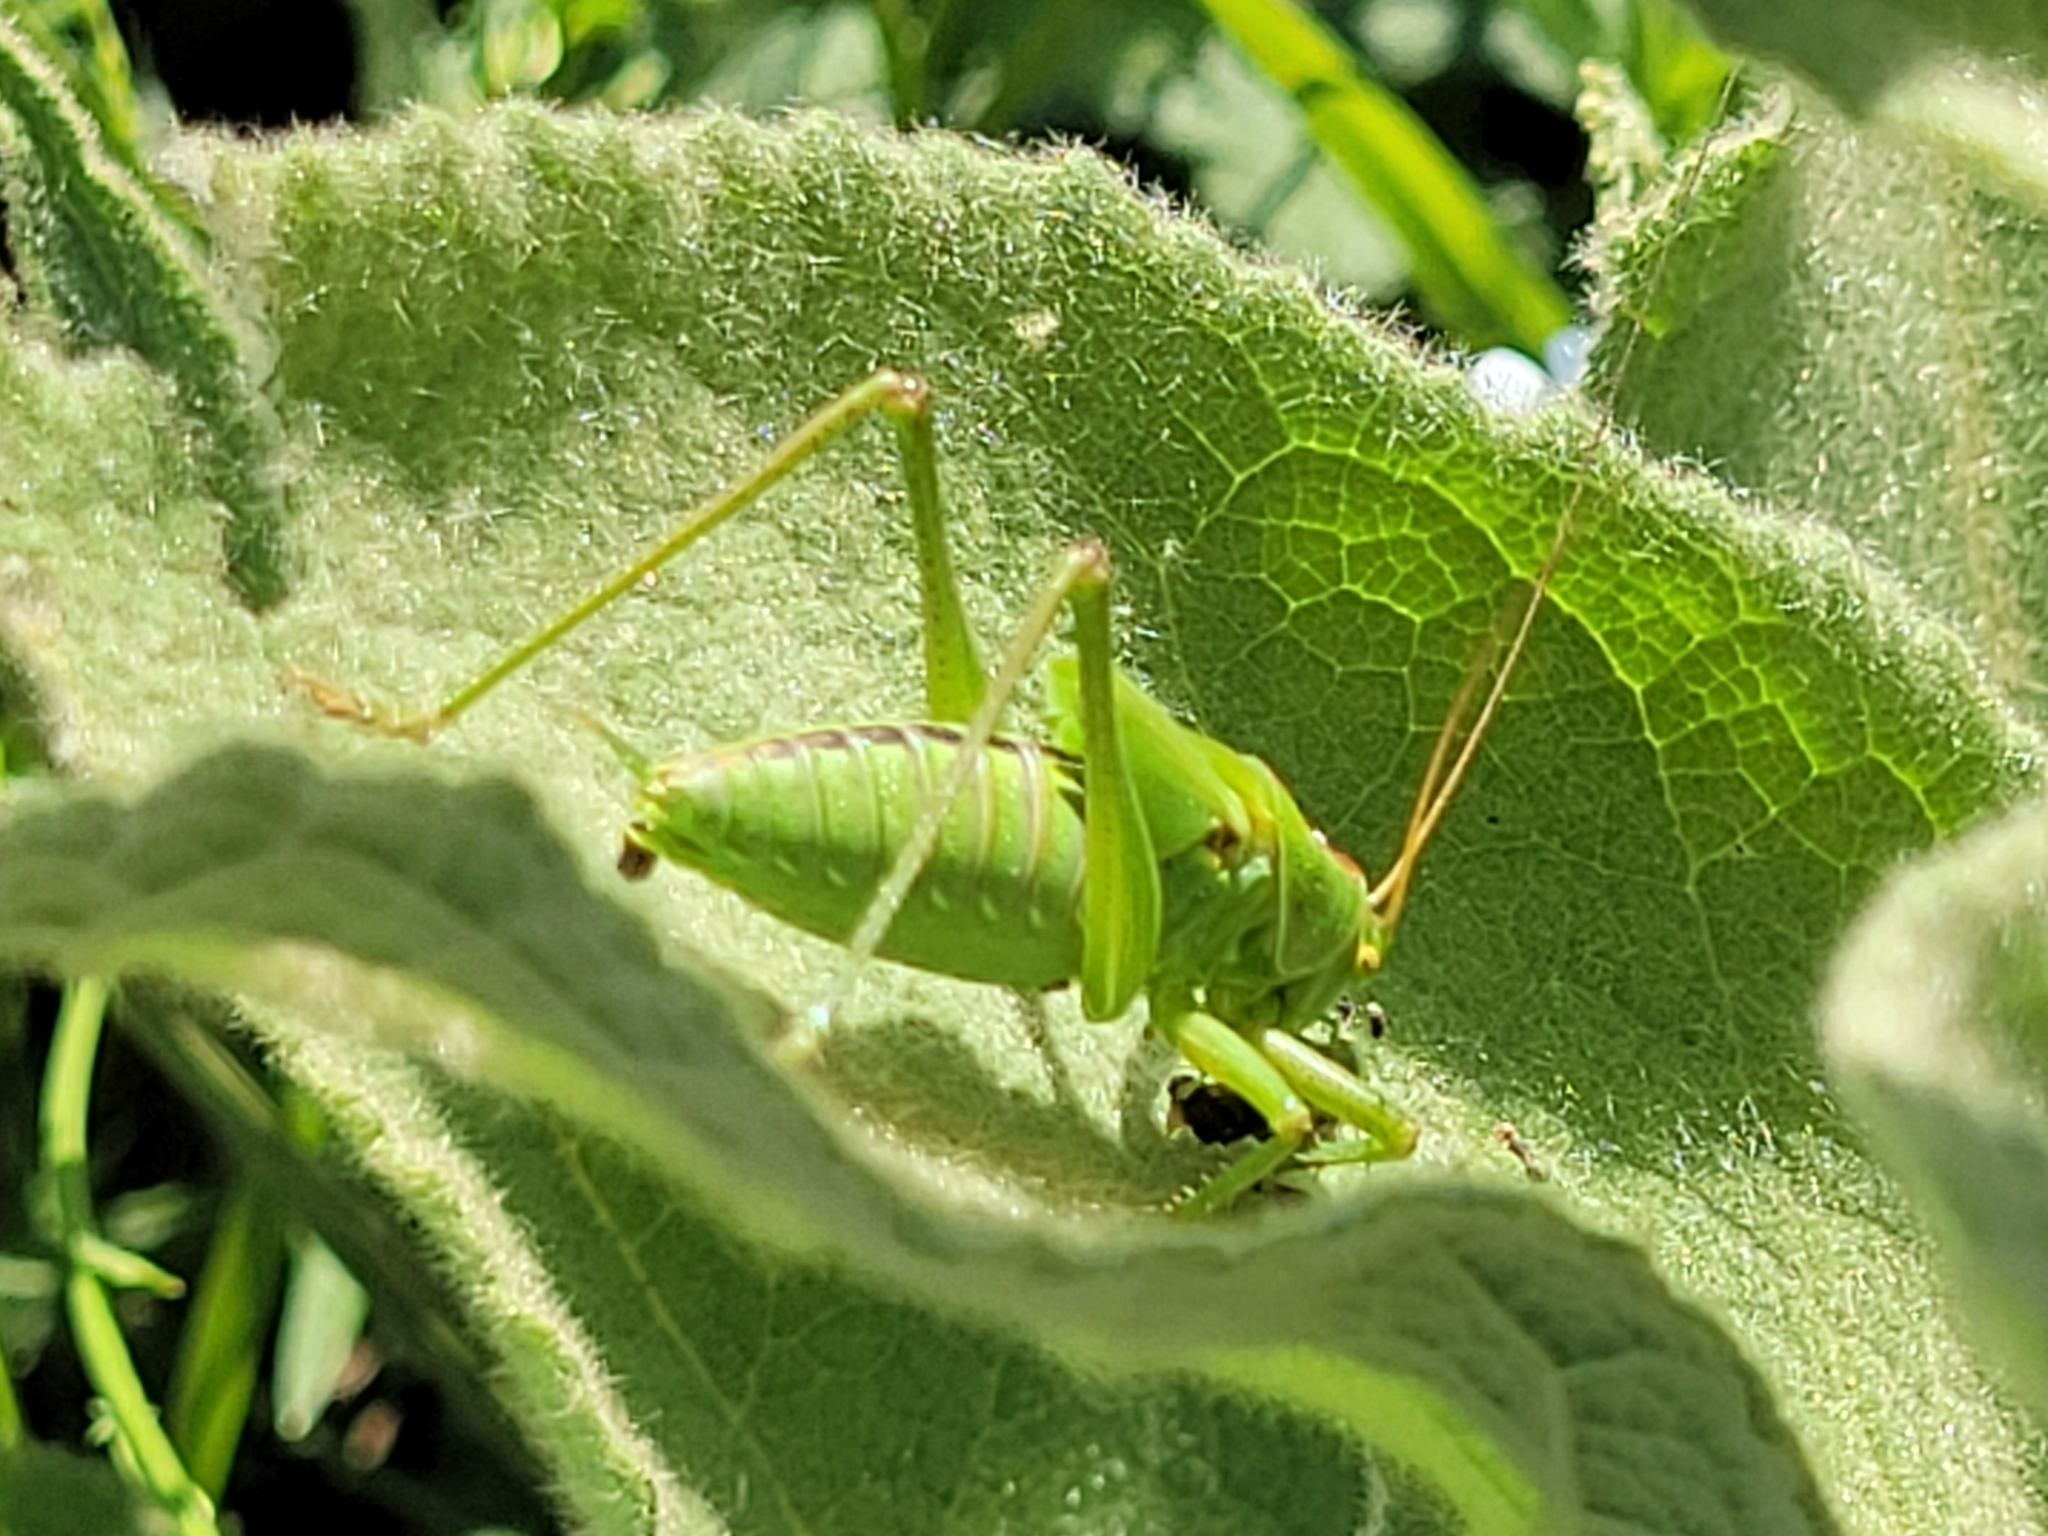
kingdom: Animalia
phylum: Arthropoda
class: Insecta
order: Orthoptera
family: Tettigoniidae
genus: Tettigonia
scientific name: Tettigonia viridissima
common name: Great green bush-cricket
